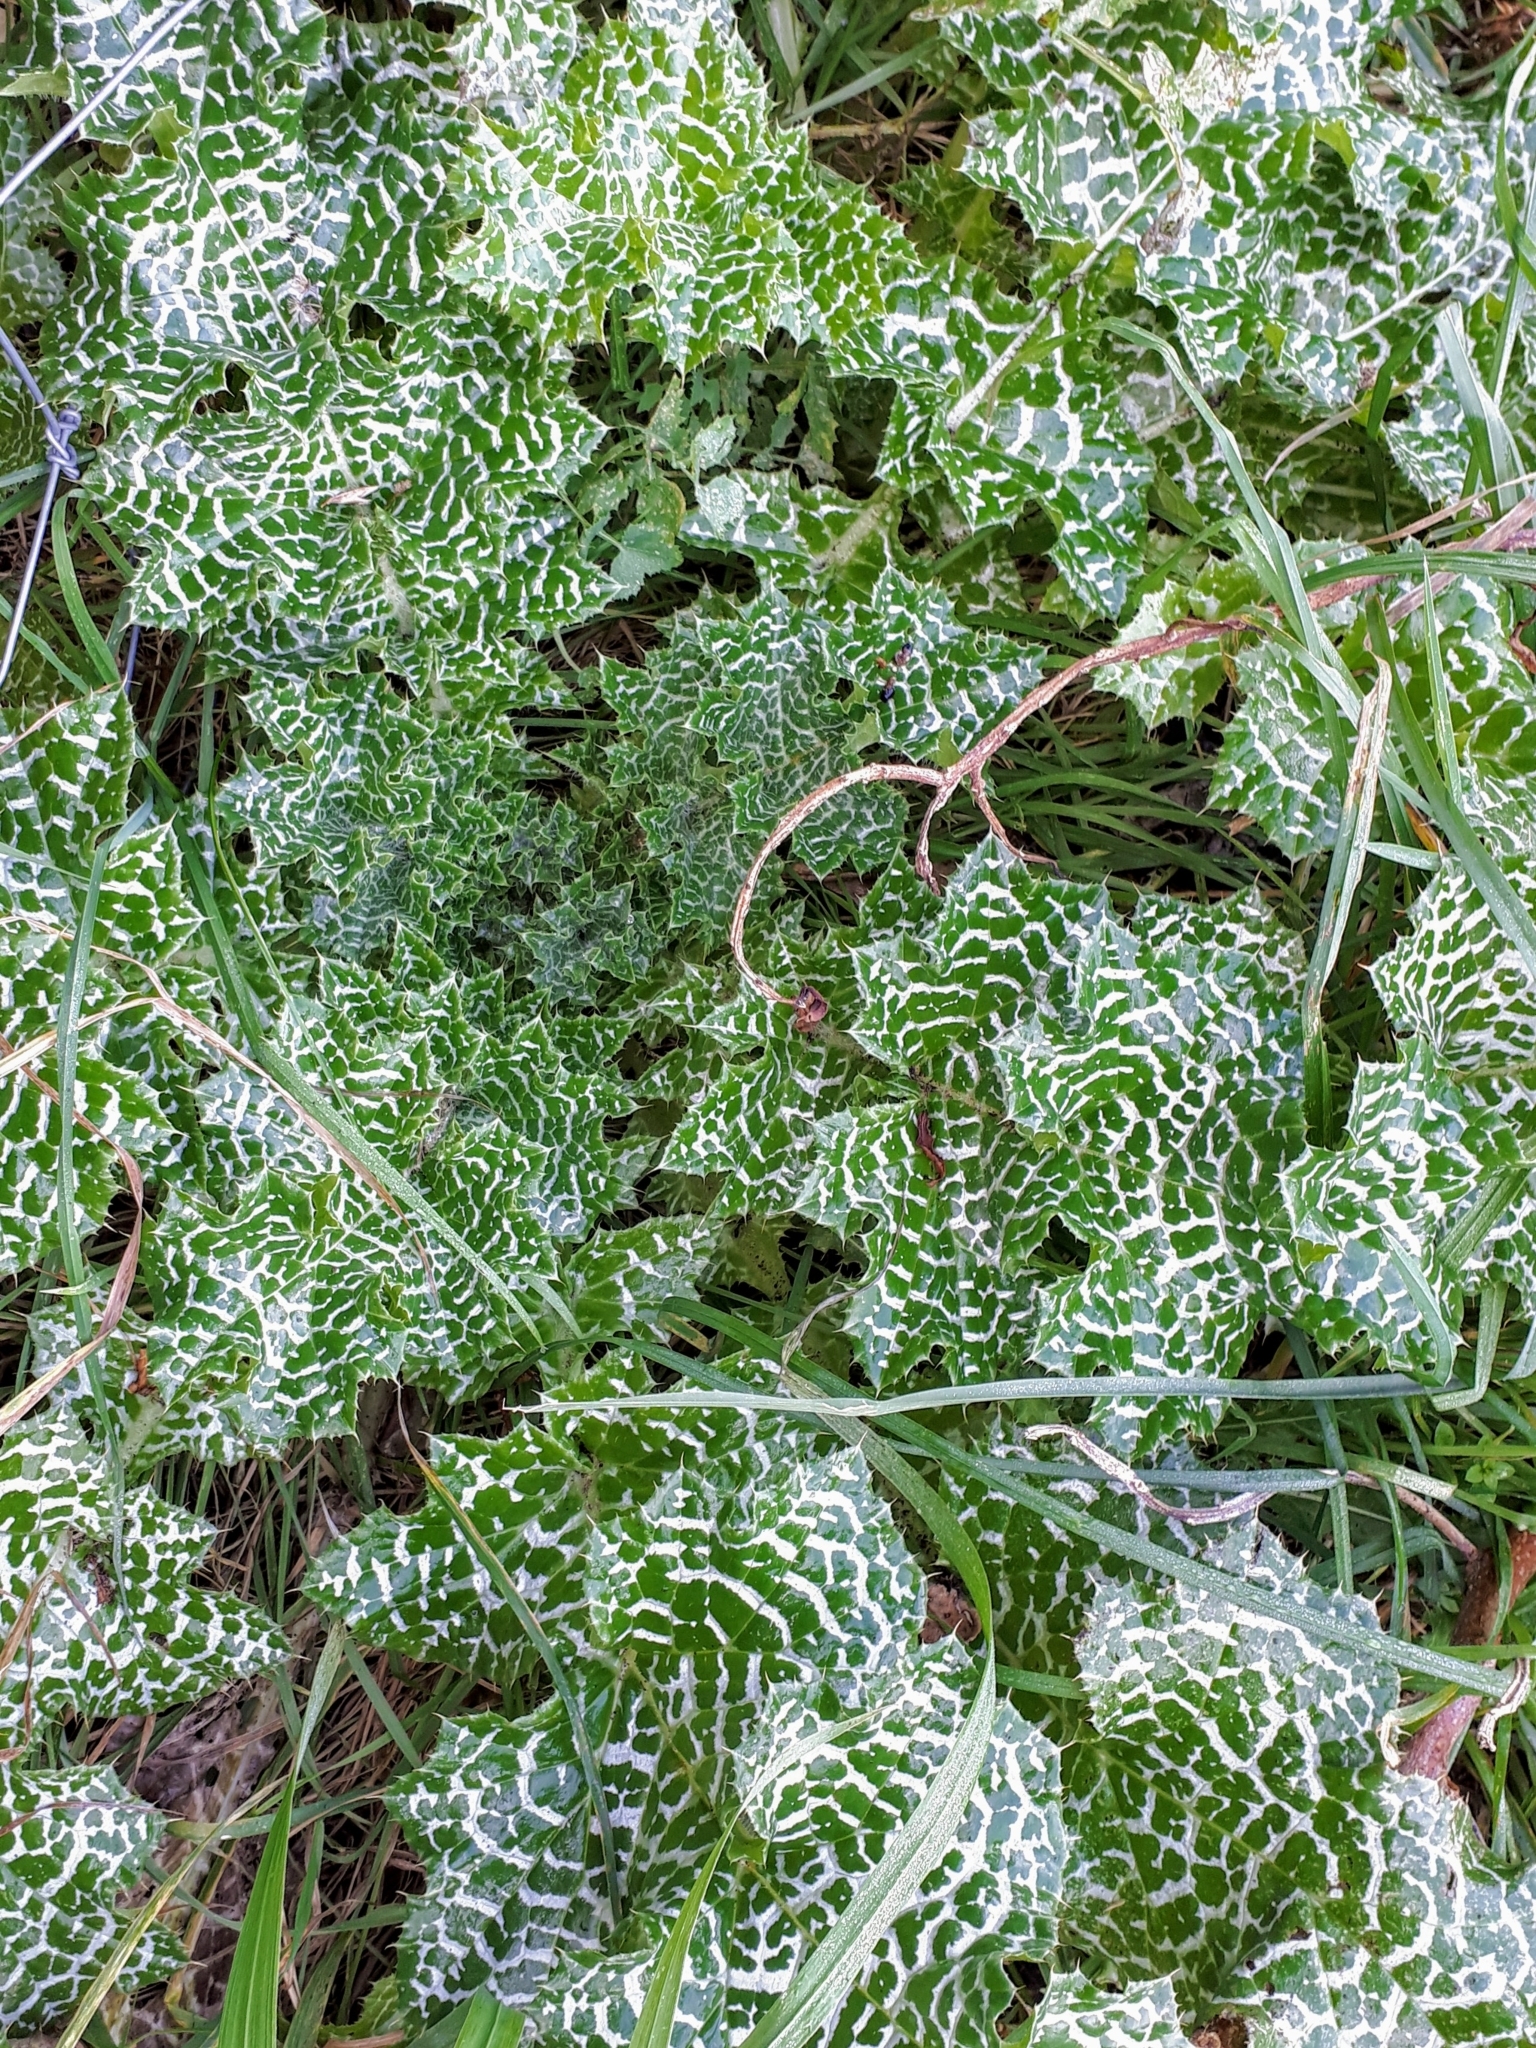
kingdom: Plantae
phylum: Tracheophyta
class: Magnoliopsida
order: Asterales
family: Asteraceae
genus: Silybum
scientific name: Silybum marianum
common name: Milk thistle
